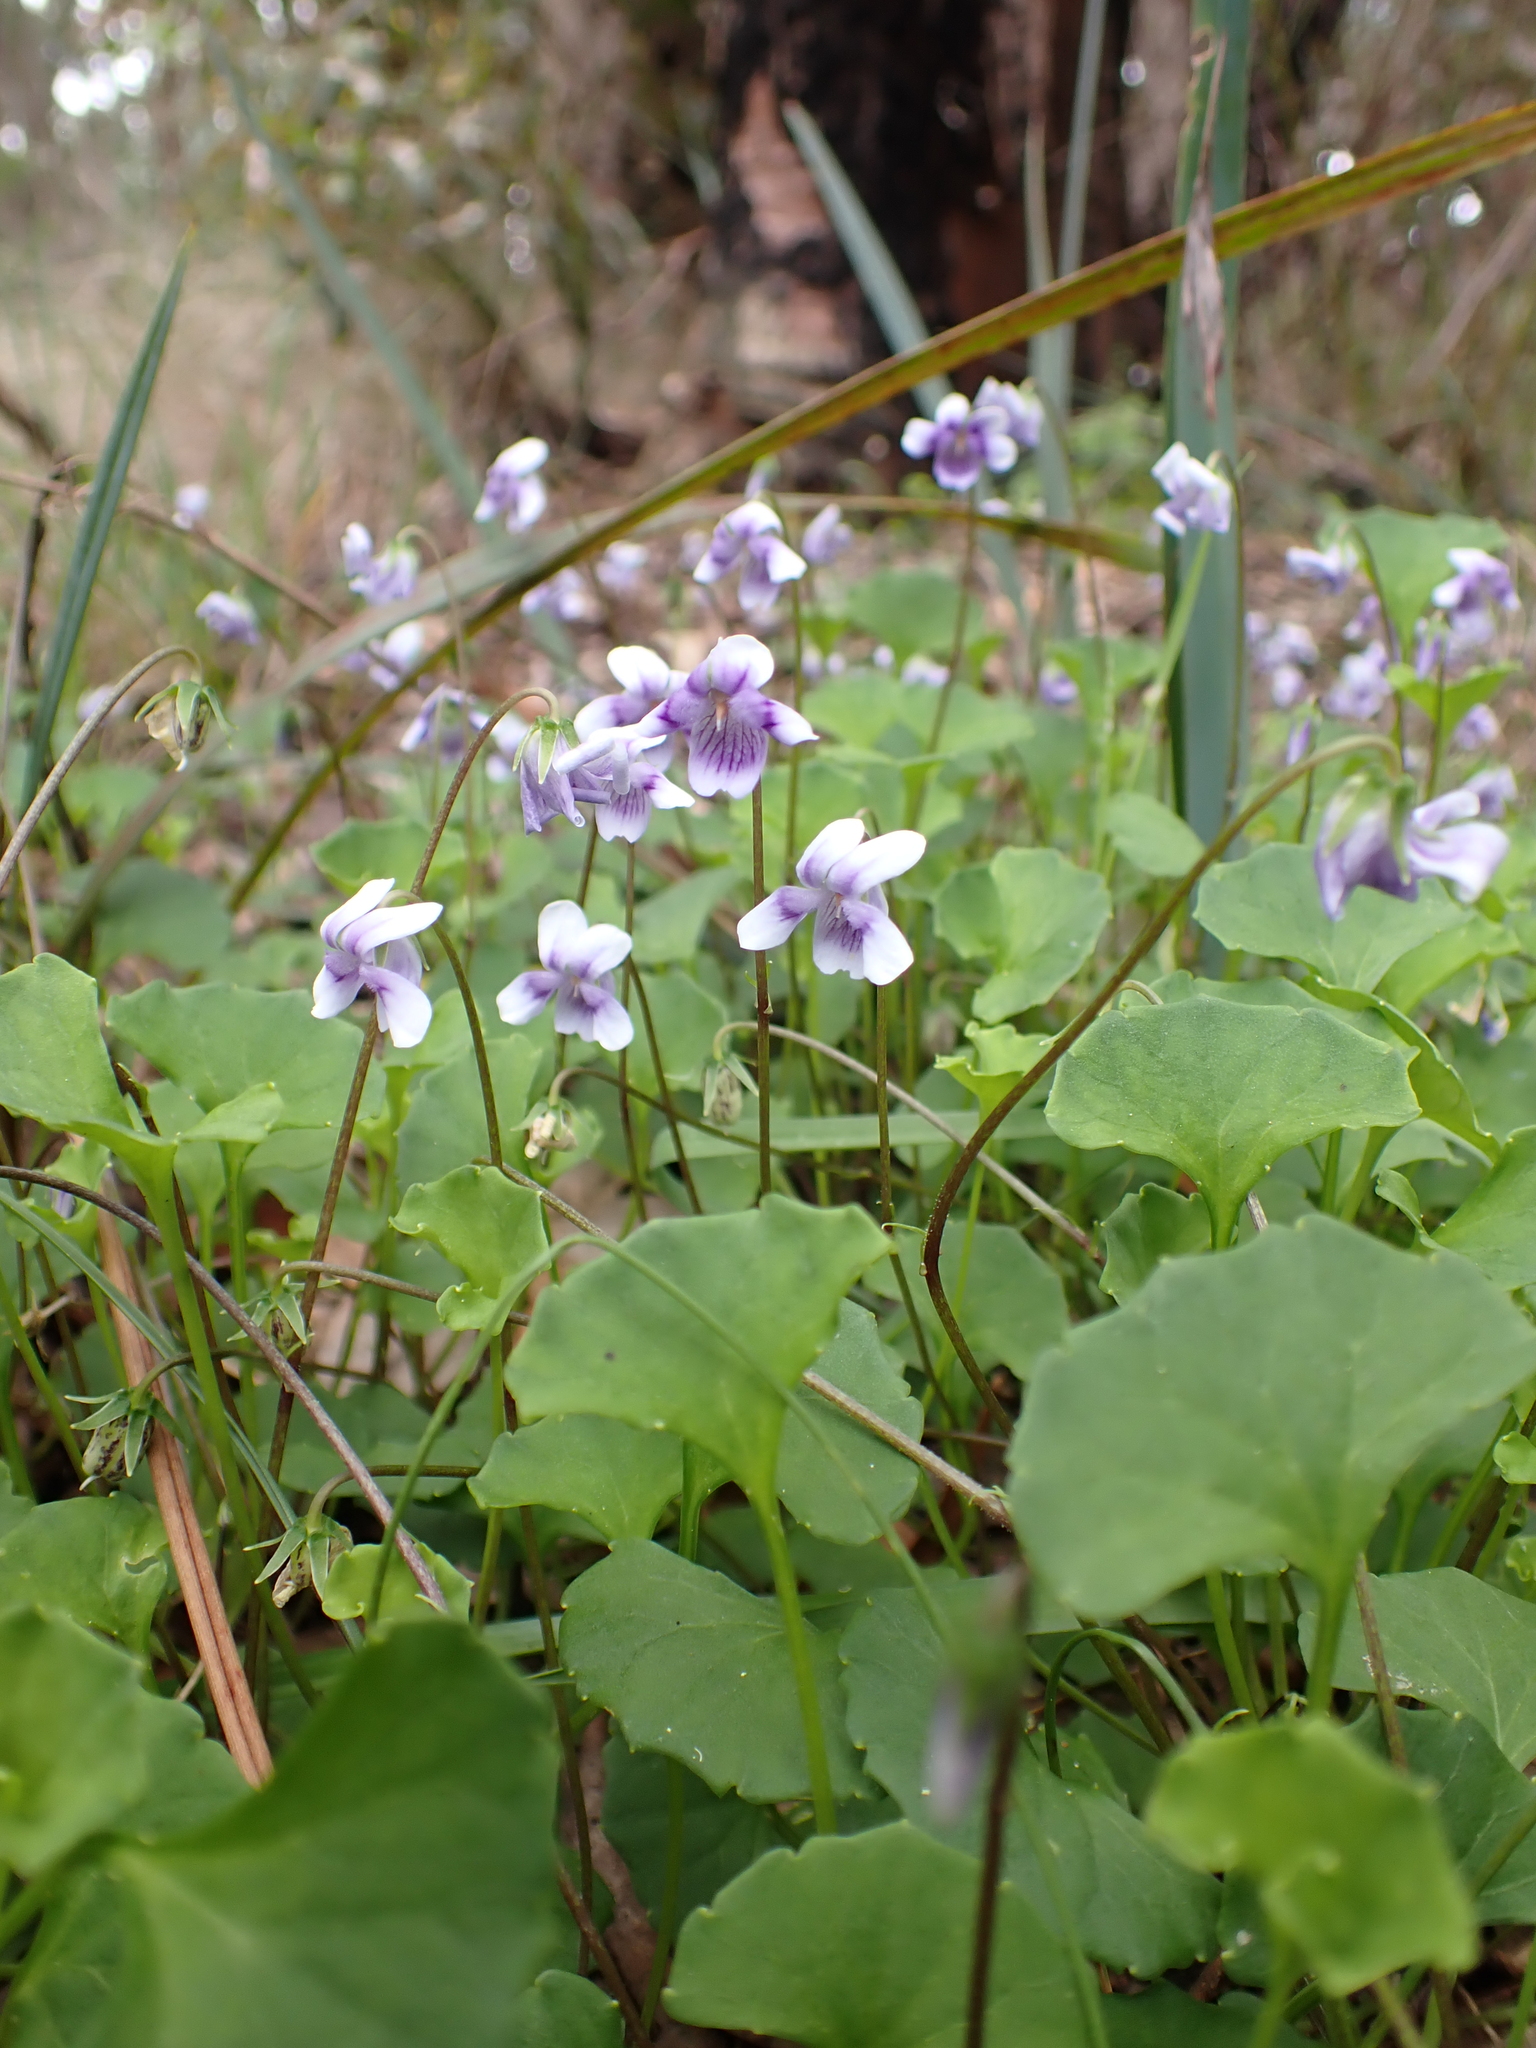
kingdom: Plantae
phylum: Tracheophyta
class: Magnoliopsida
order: Malpighiales
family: Violaceae
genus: Viola
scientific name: Viola hederacea
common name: Australian violet
